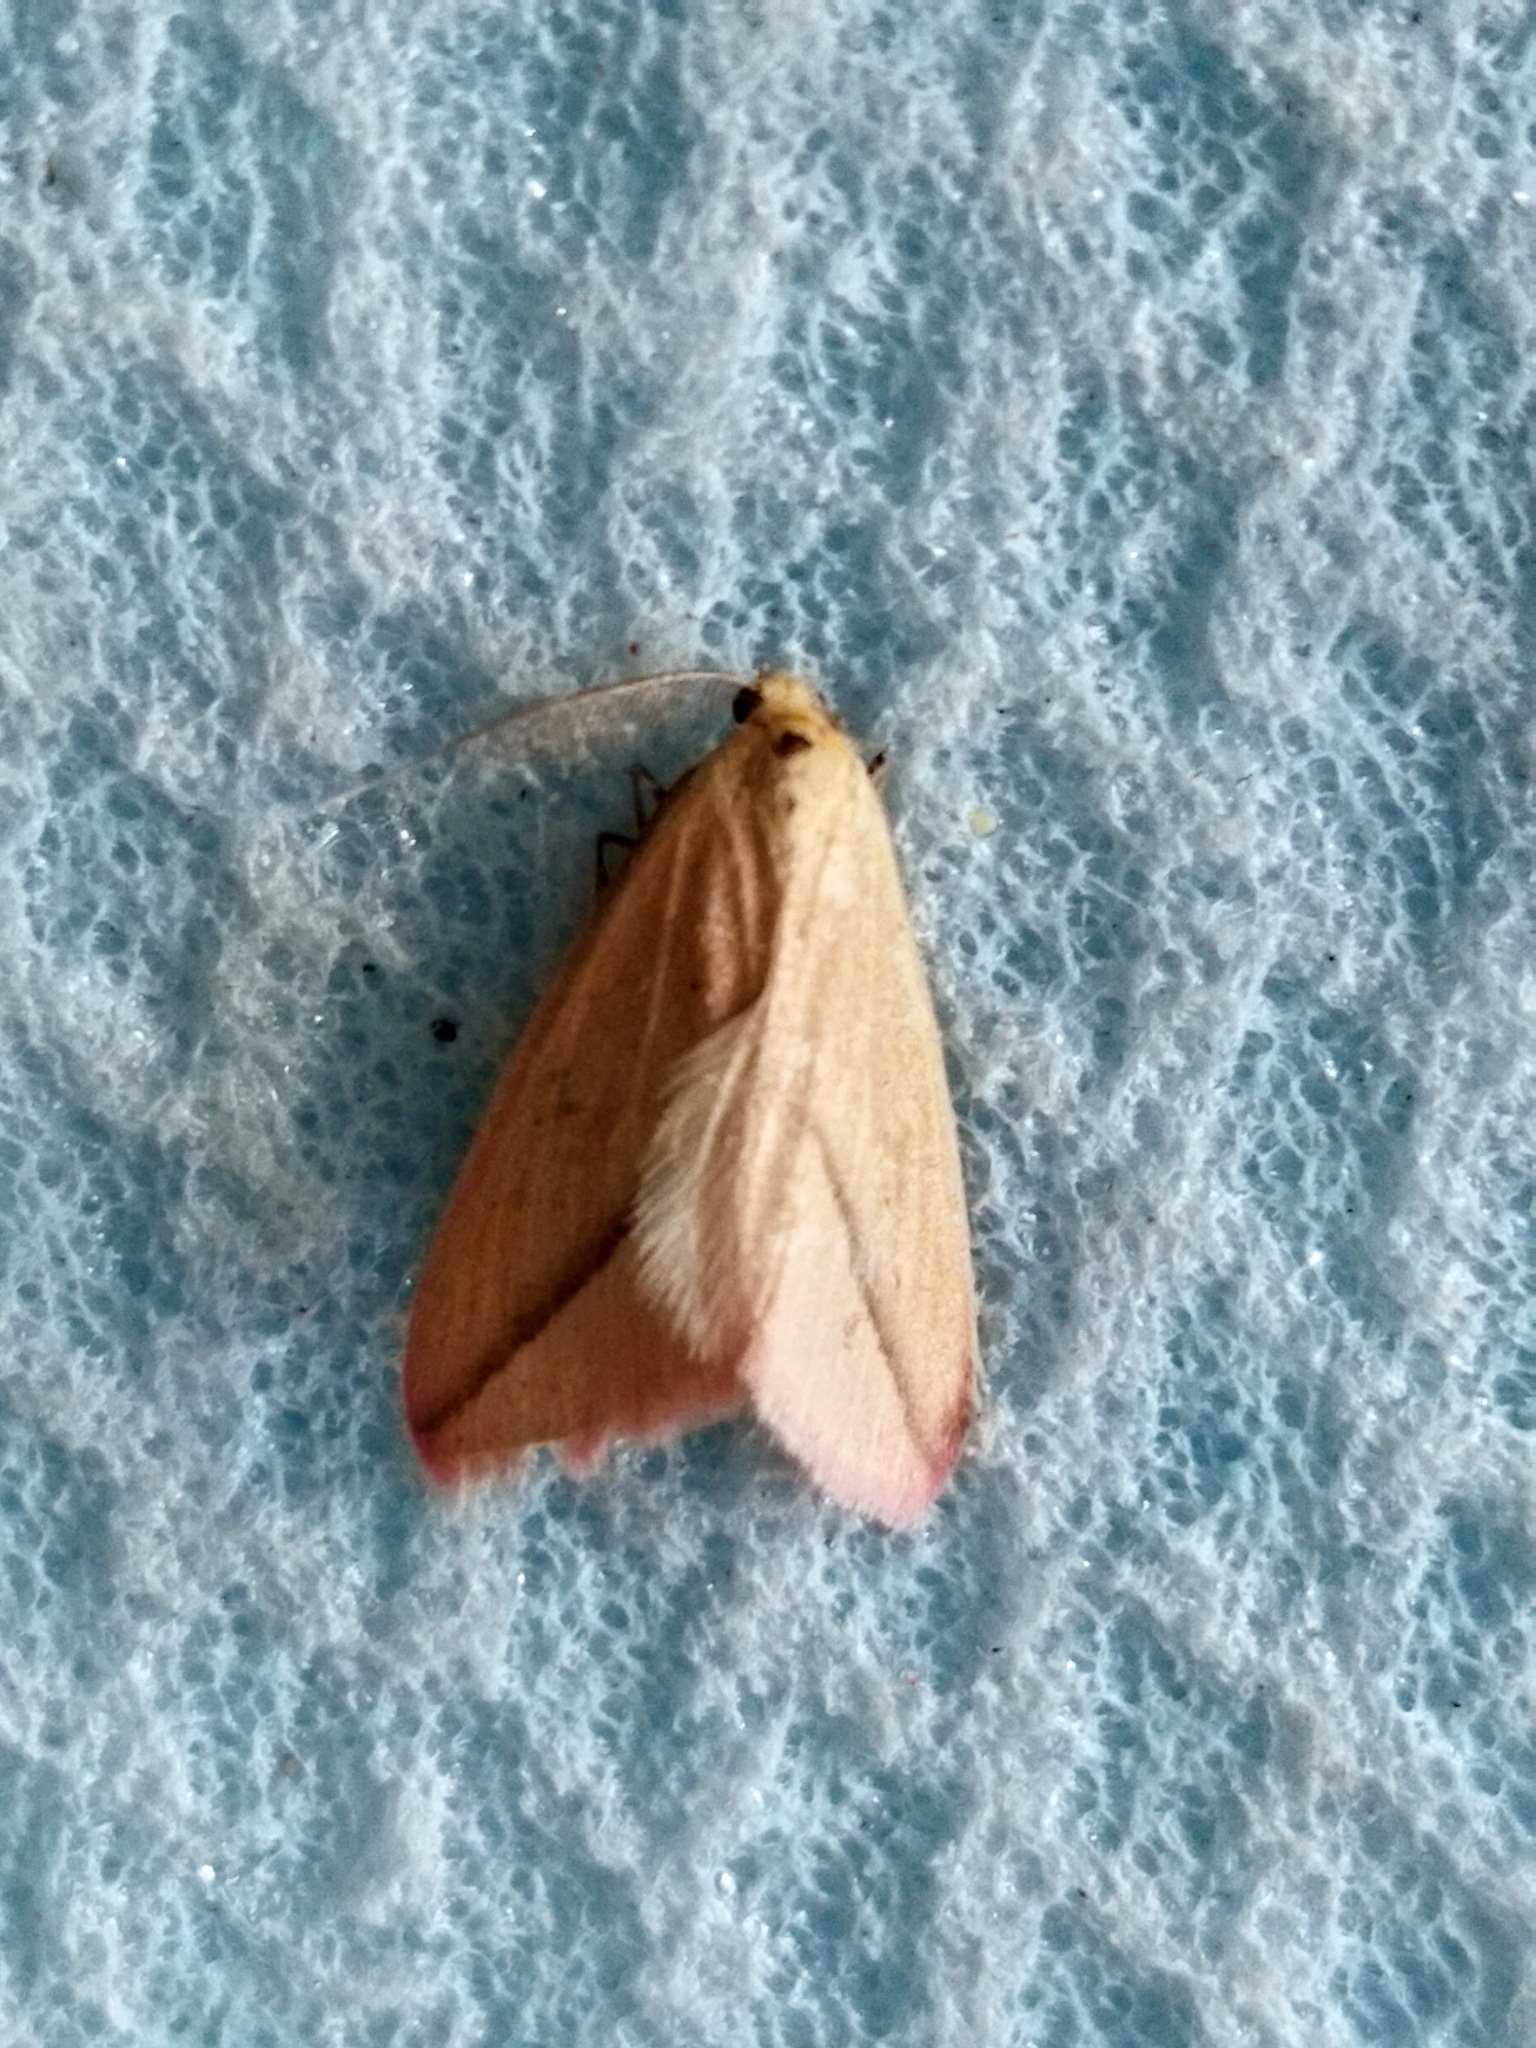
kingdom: Animalia
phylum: Arthropoda
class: Insecta
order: Lepidoptera
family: Geometridae
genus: Rhodometra
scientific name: Rhodometra sacraria
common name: Vestal
